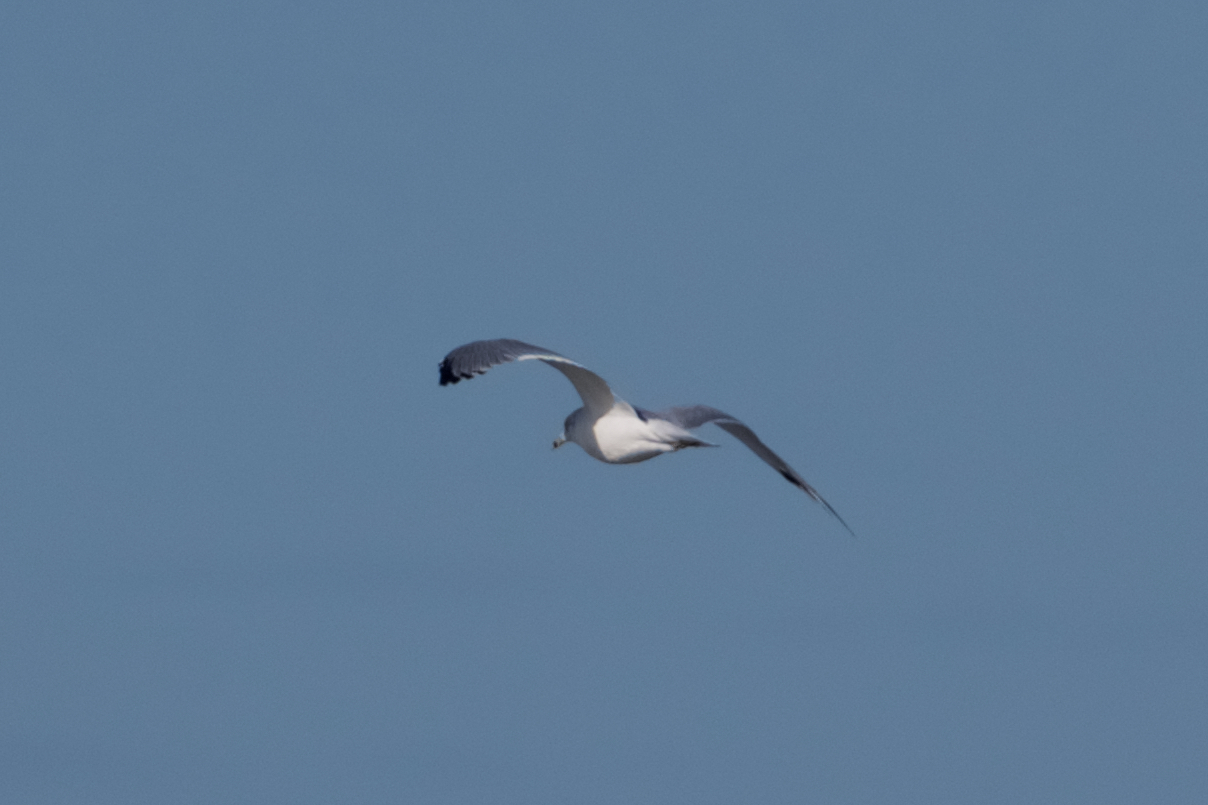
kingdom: Animalia
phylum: Chordata
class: Aves
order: Charadriiformes
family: Laridae
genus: Larus
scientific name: Larus delawarensis
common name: Ring-billed gull
